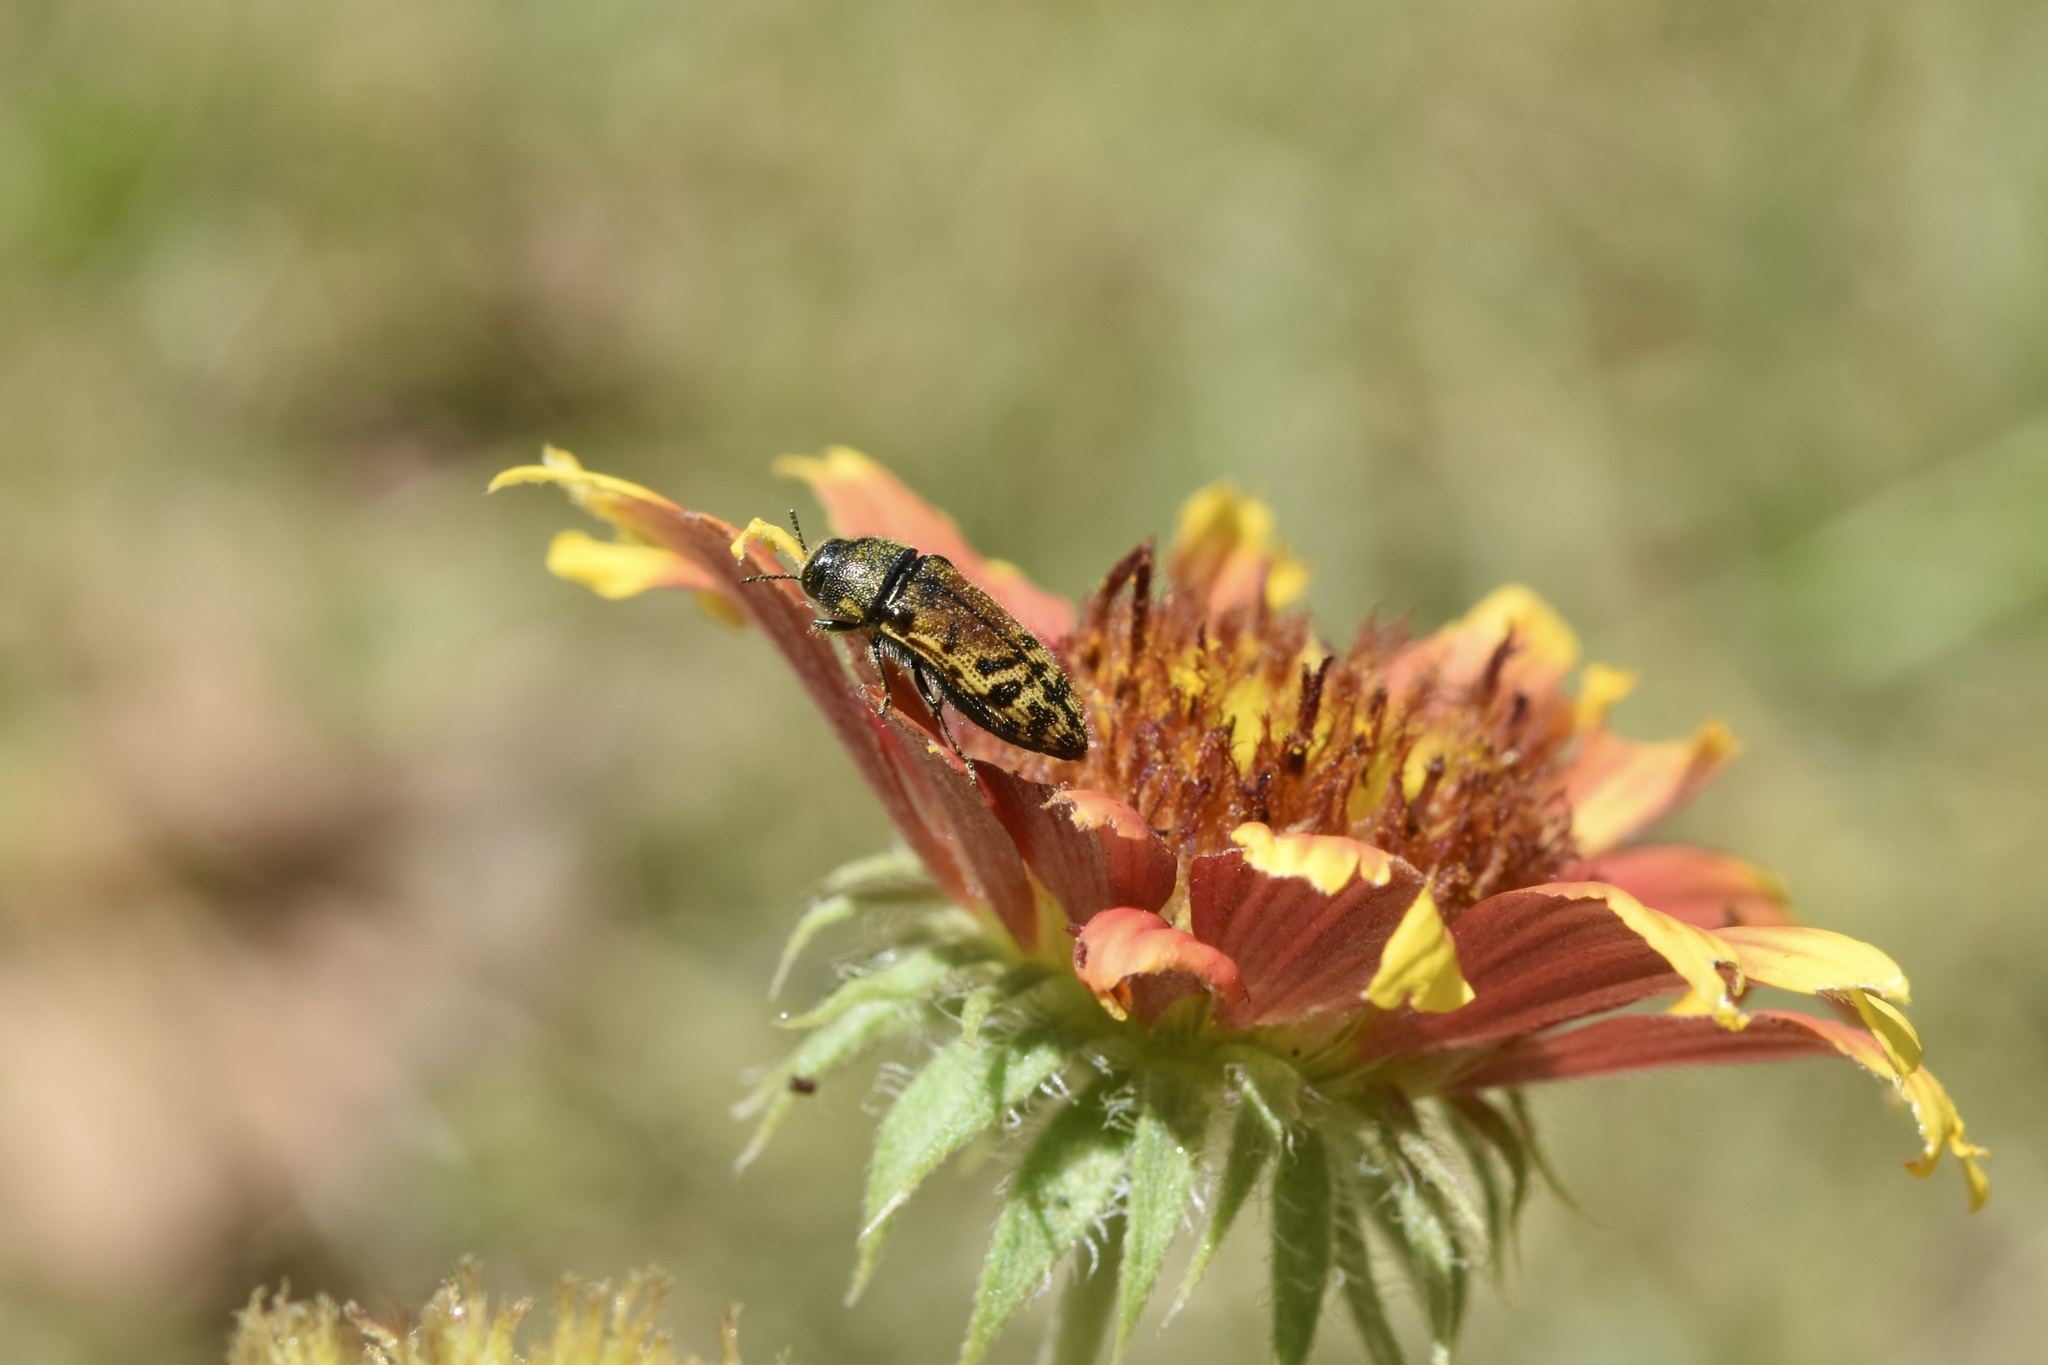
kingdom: Animalia
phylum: Arthropoda
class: Insecta
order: Coleoptera
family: Buprestidae
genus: Acmaeodera
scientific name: Acmaeodera mixta
